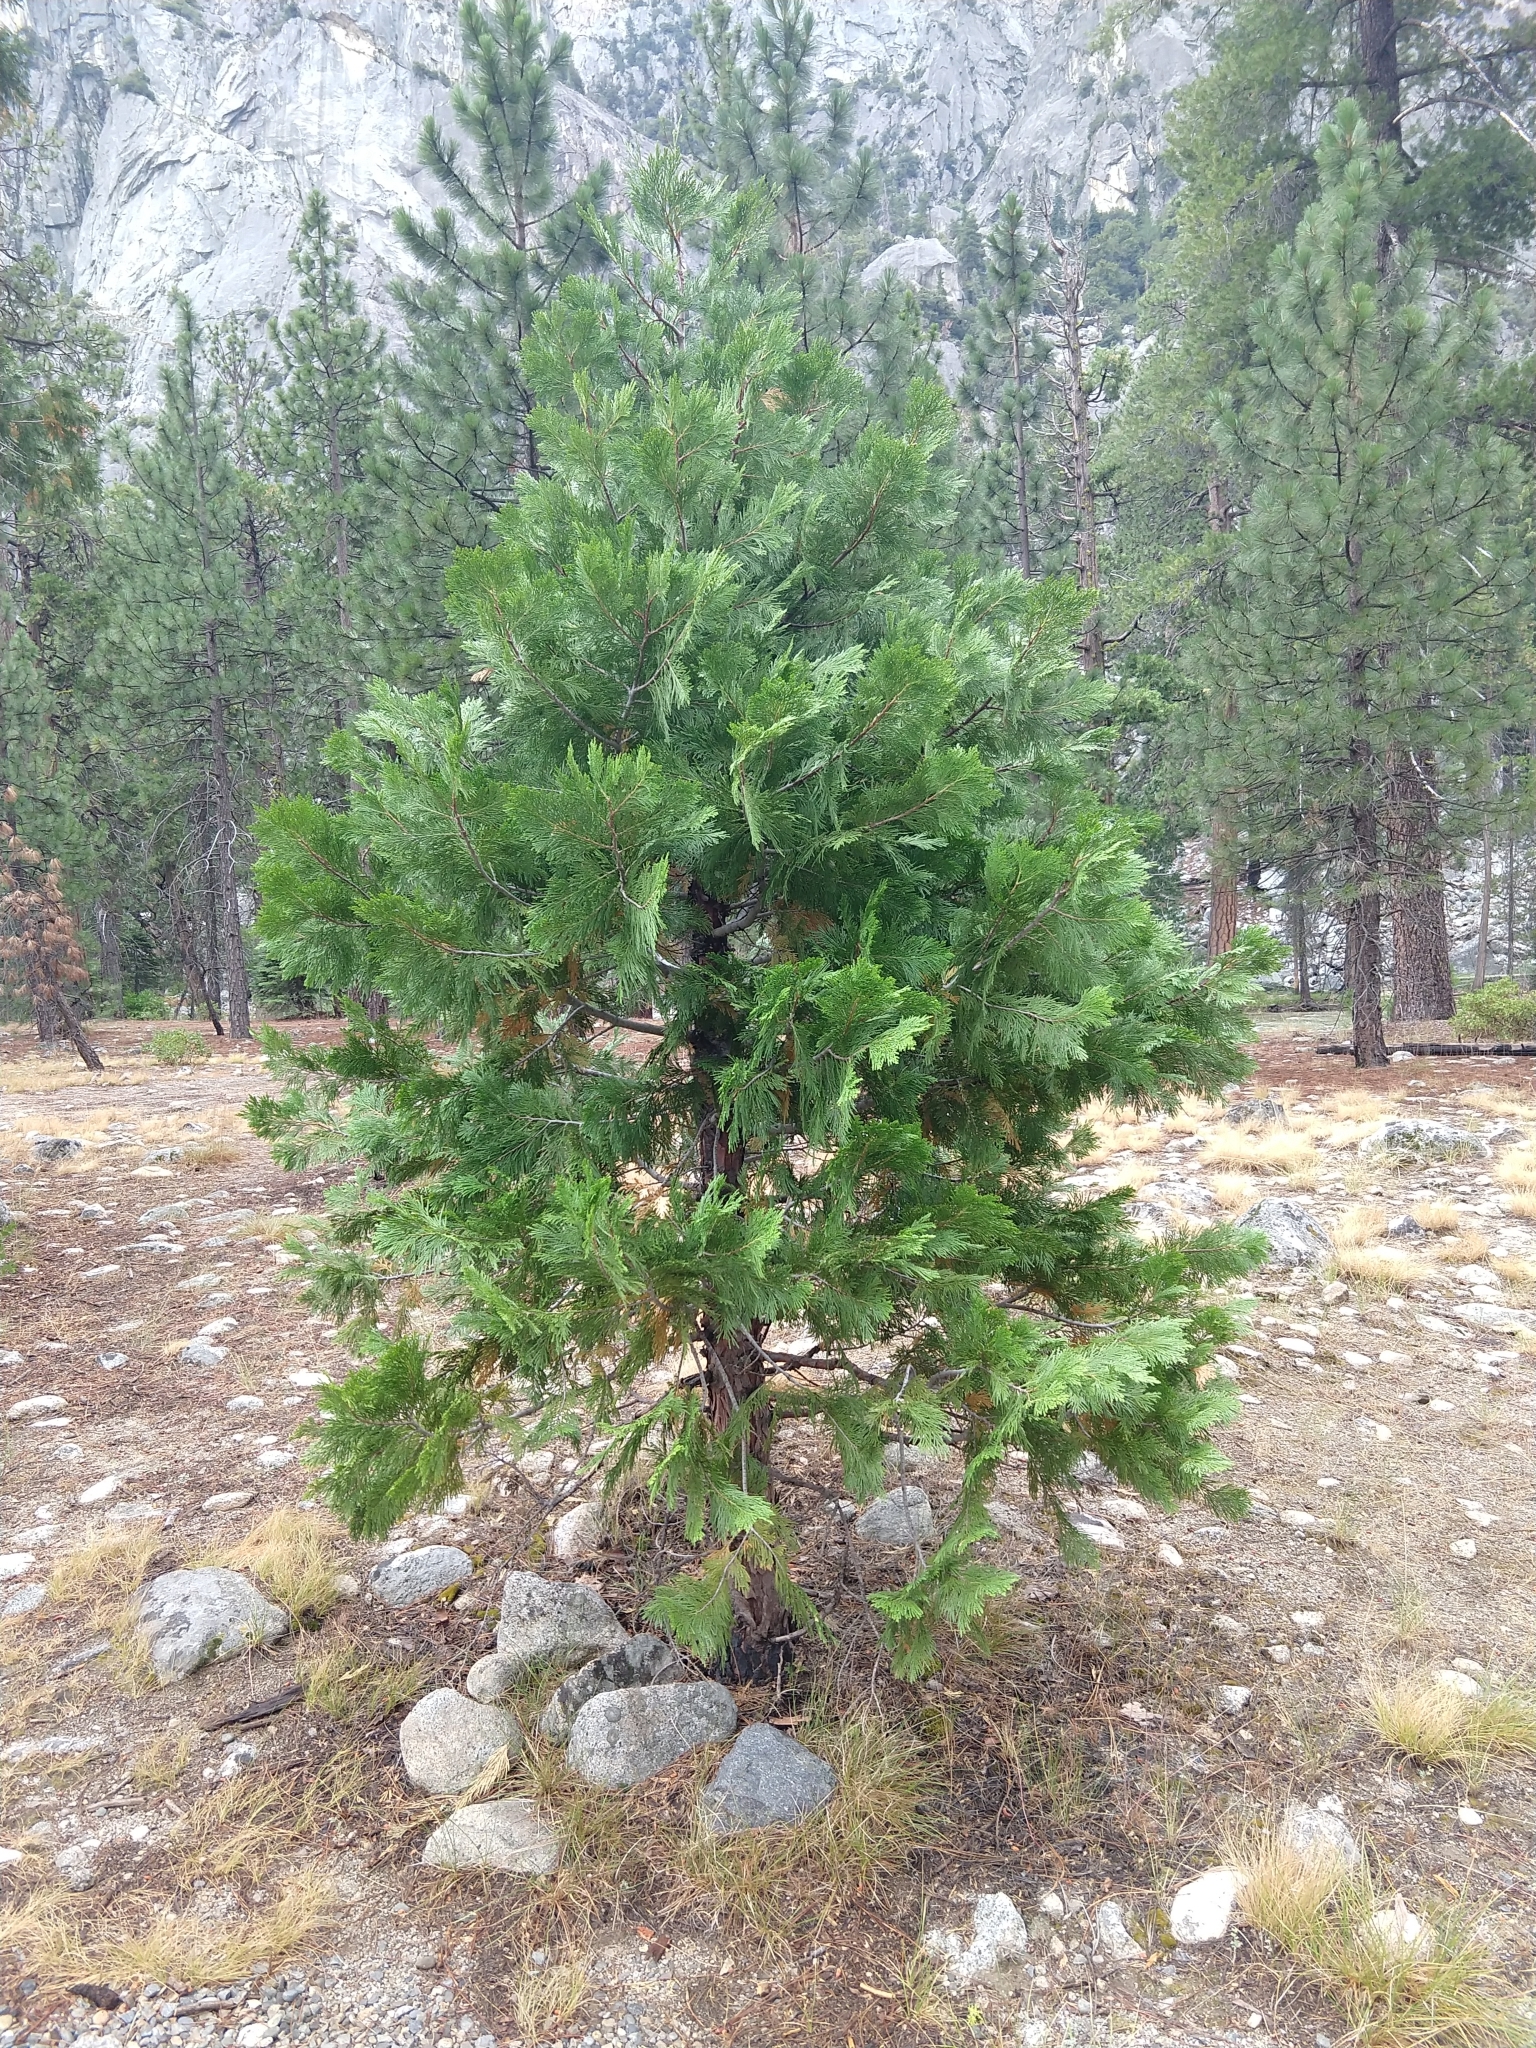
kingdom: Plantae
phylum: Tracheophyta
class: Pinopsida
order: Pinales
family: Cupressaceae
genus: Calocedrus
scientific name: Calocedrus decurrens
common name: Californian incense-cedar
